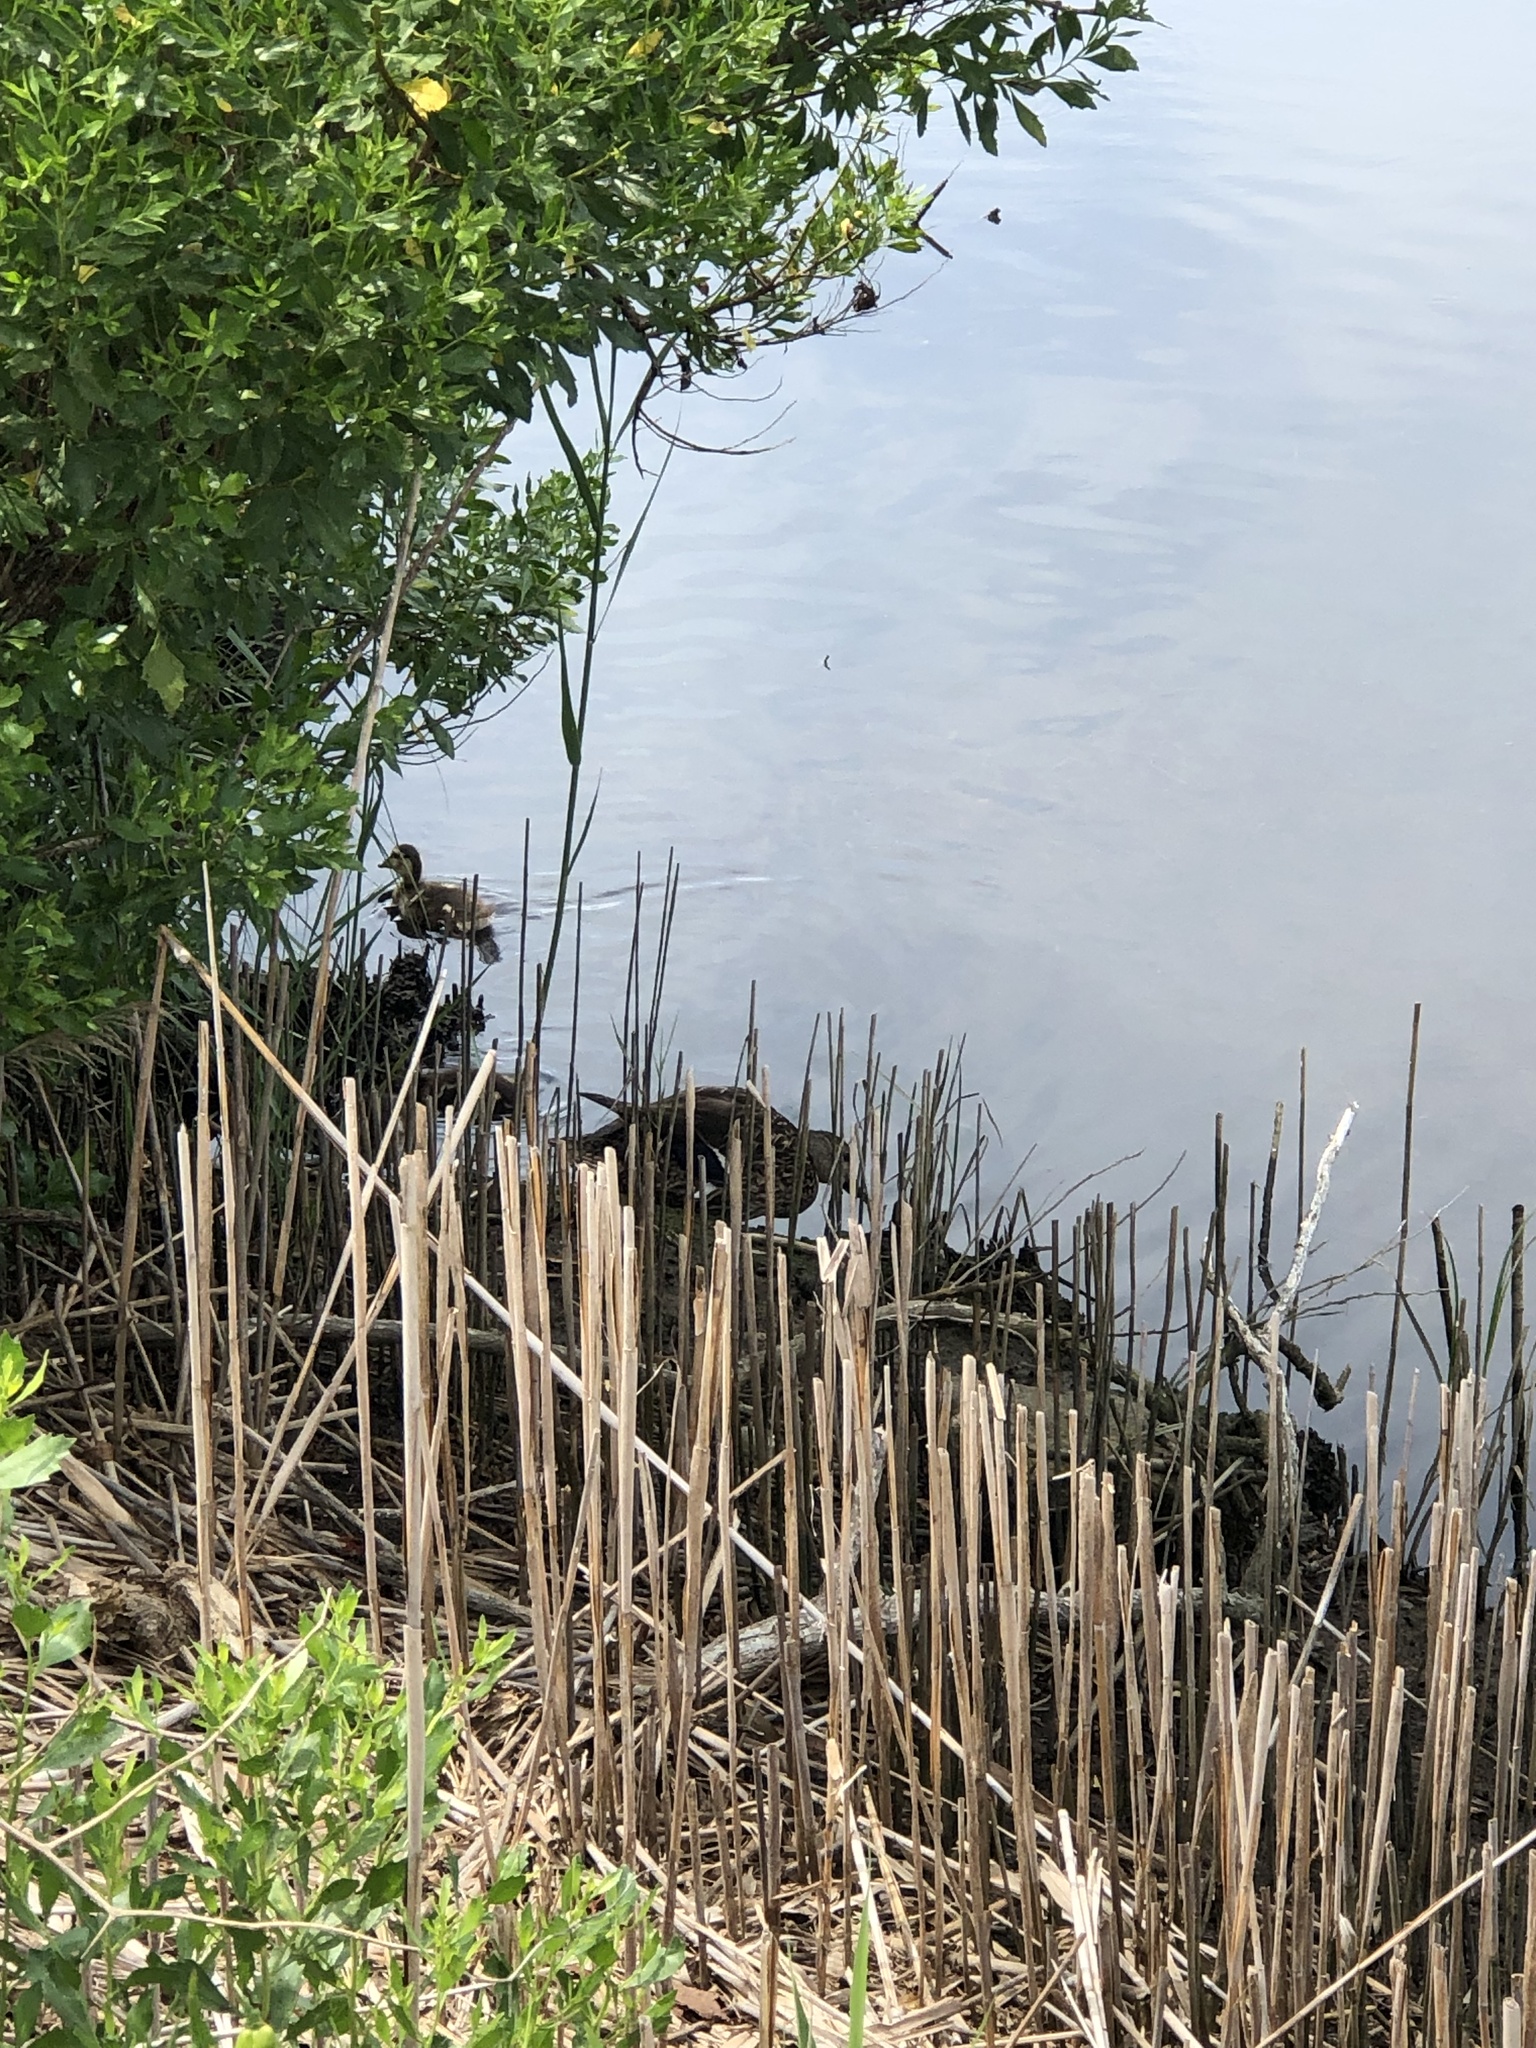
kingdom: Animalia
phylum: Chordata
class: Aves
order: Anseriformes
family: Anatidae
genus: Anas
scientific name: Anas platyrhynchos
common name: Mallard
